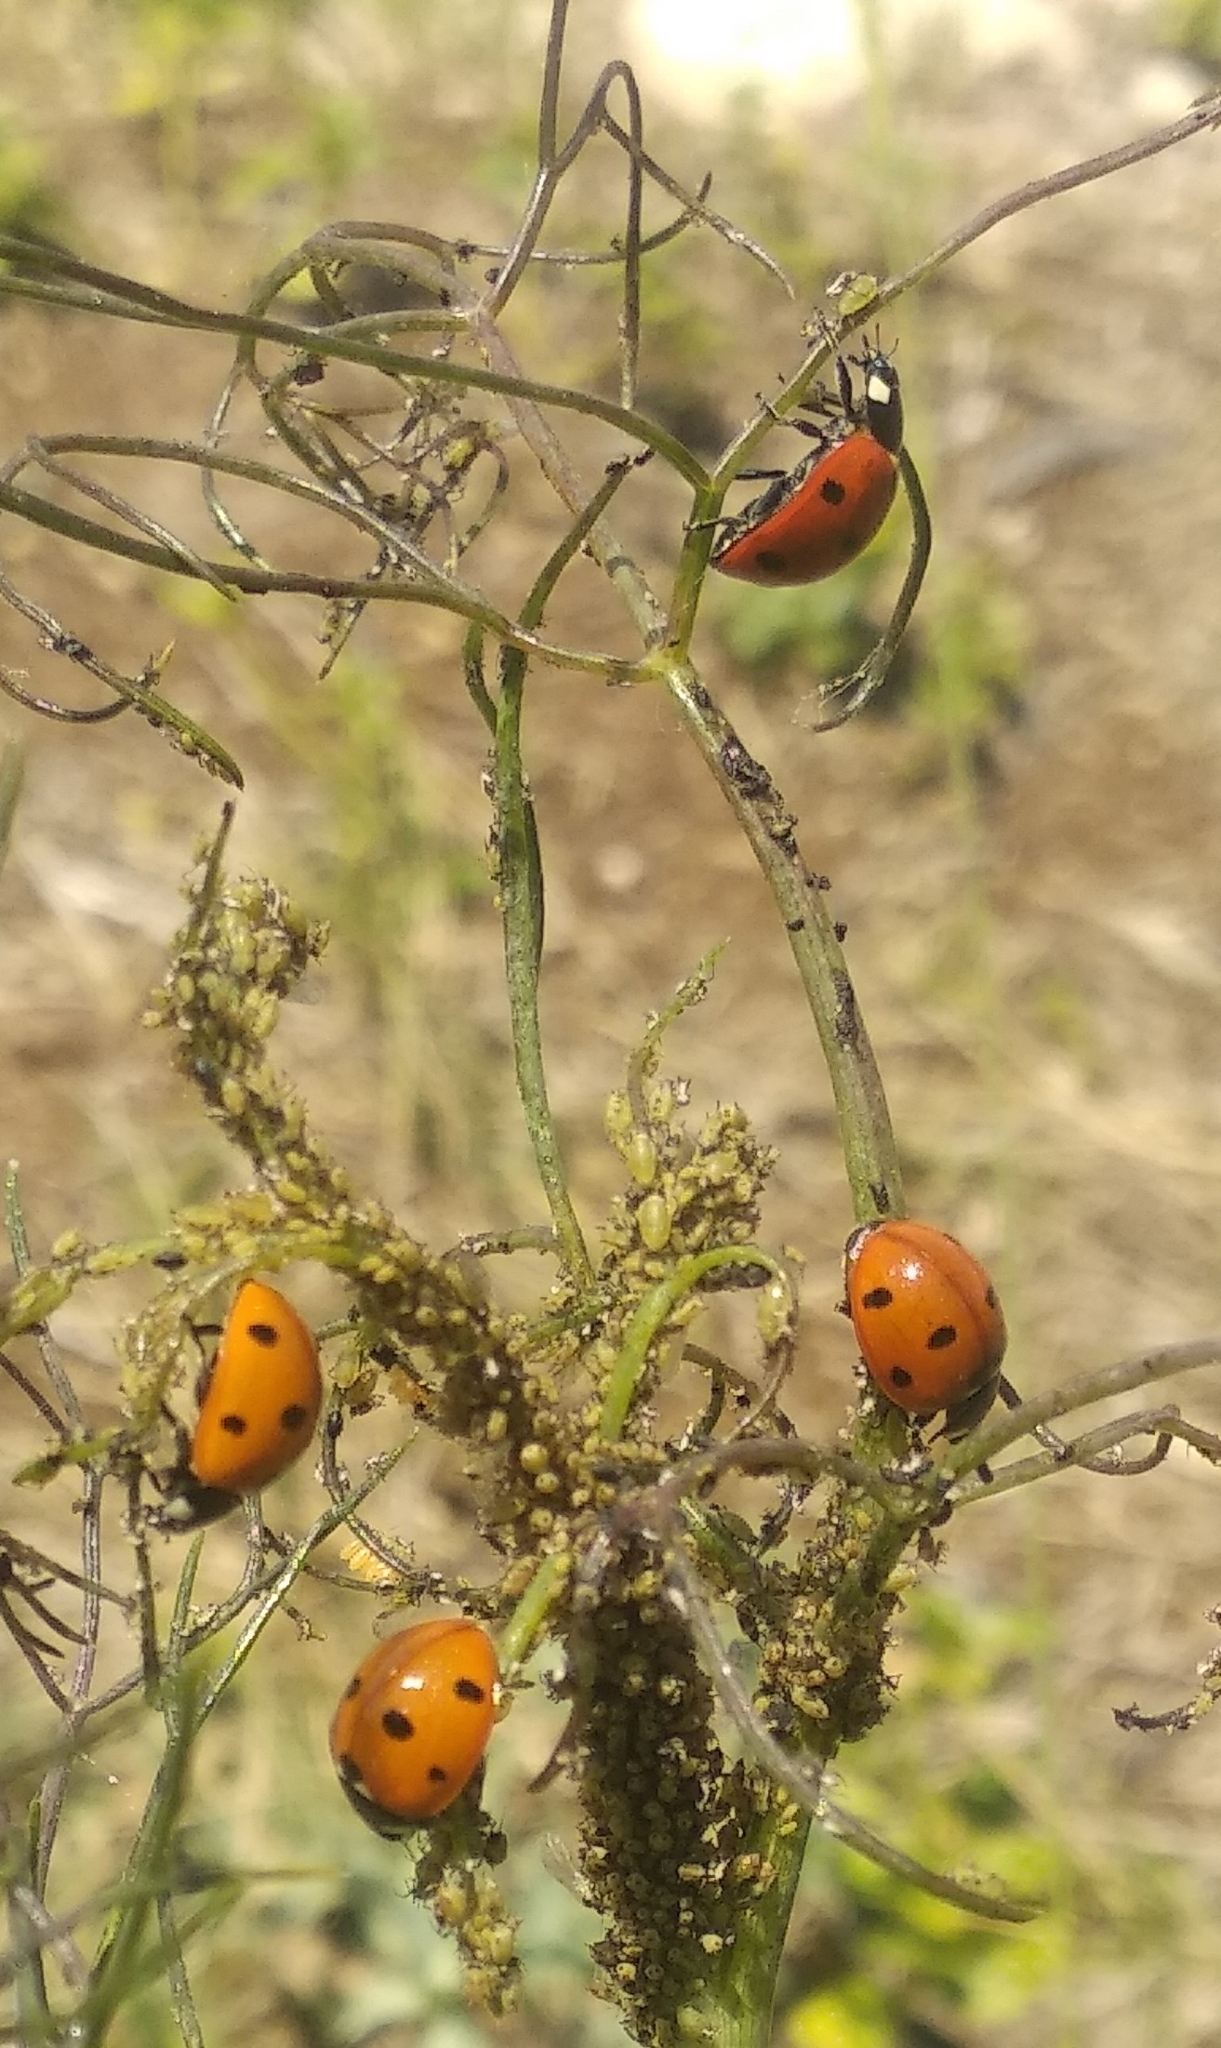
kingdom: Animalia
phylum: Arthropoda
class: Insecta
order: Coleoptera
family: Coccinellidae
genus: Coccinella
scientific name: Coccinella septempunctata
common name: Sevenspotted lady beetle
